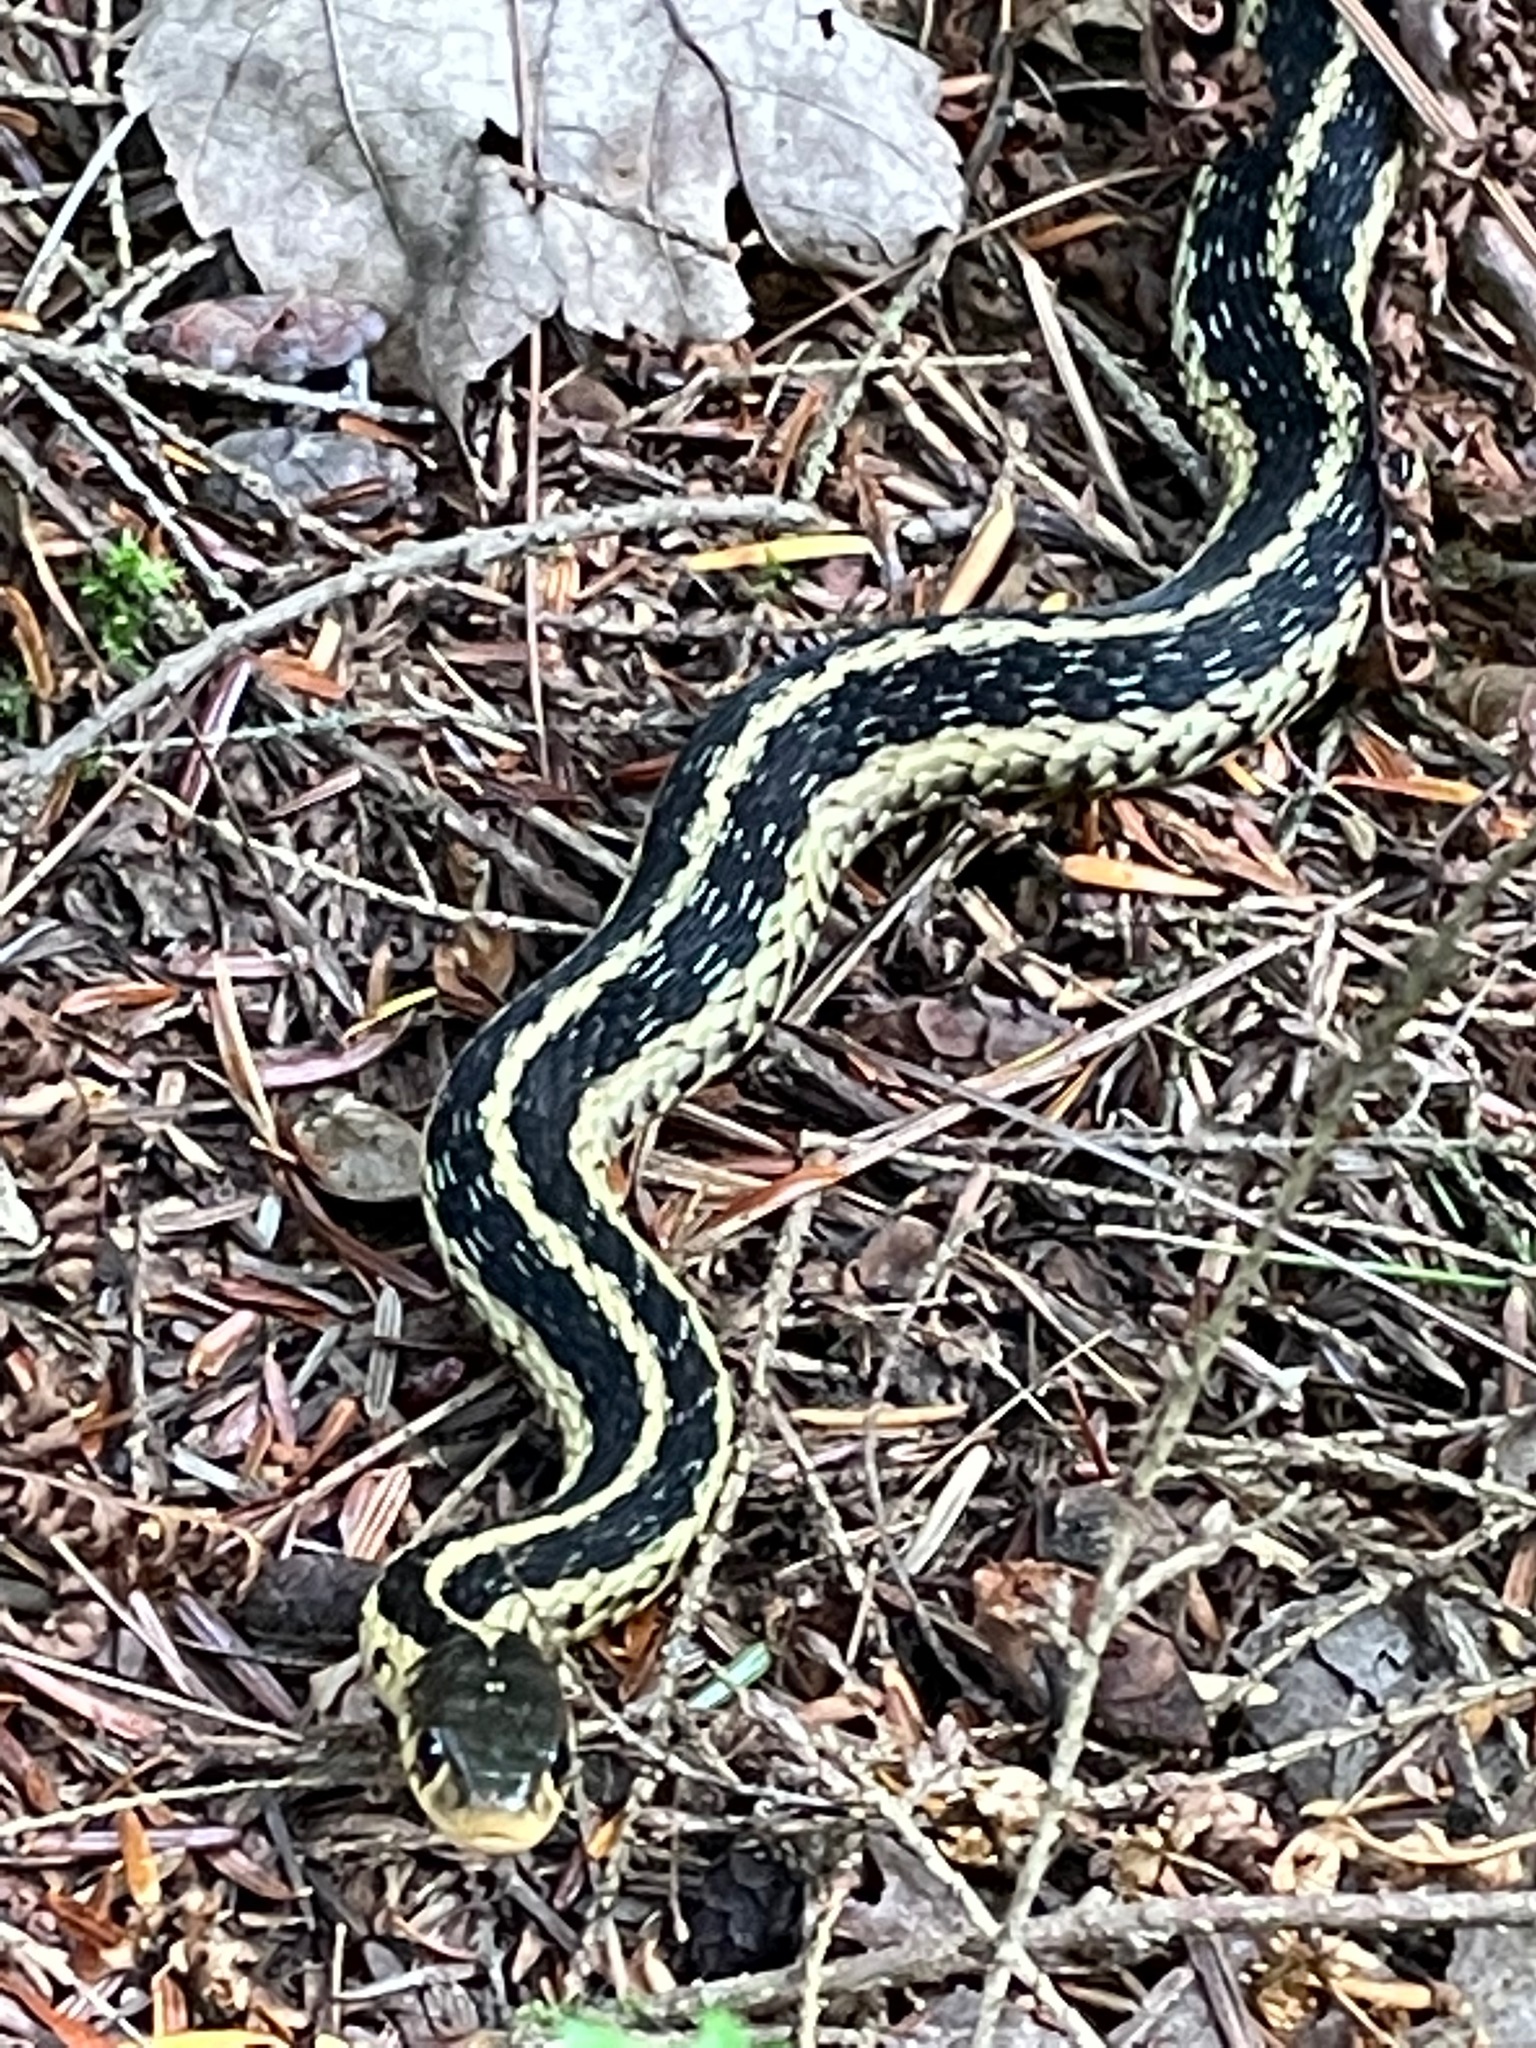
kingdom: Animalia
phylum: Chordata
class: Squamata
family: Colubridae
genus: Thamnophis
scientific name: Thamnophis sirtalis
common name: Common garter snake
